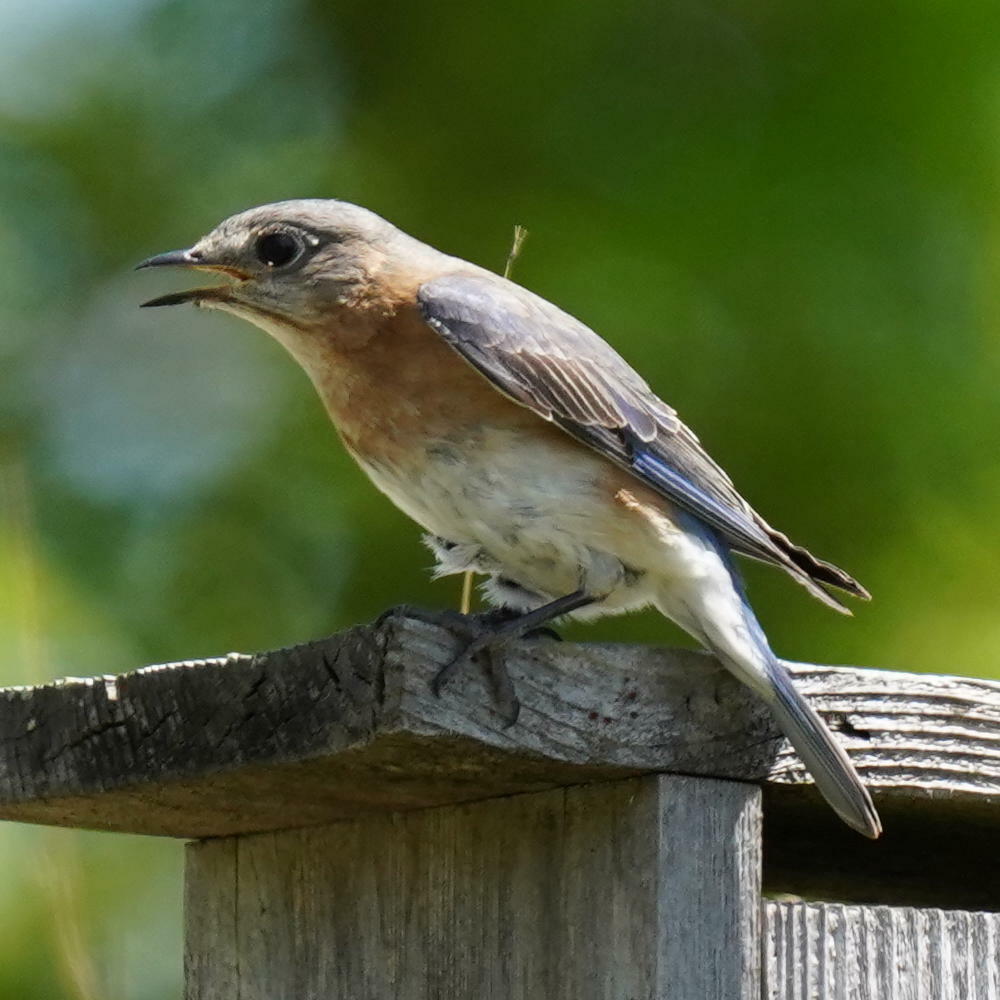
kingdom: Animalia
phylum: Chordata
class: Aves
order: Passeriformes
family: Turdidae
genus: Sialia
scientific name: Sialia sialis
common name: Eastern bluebird
